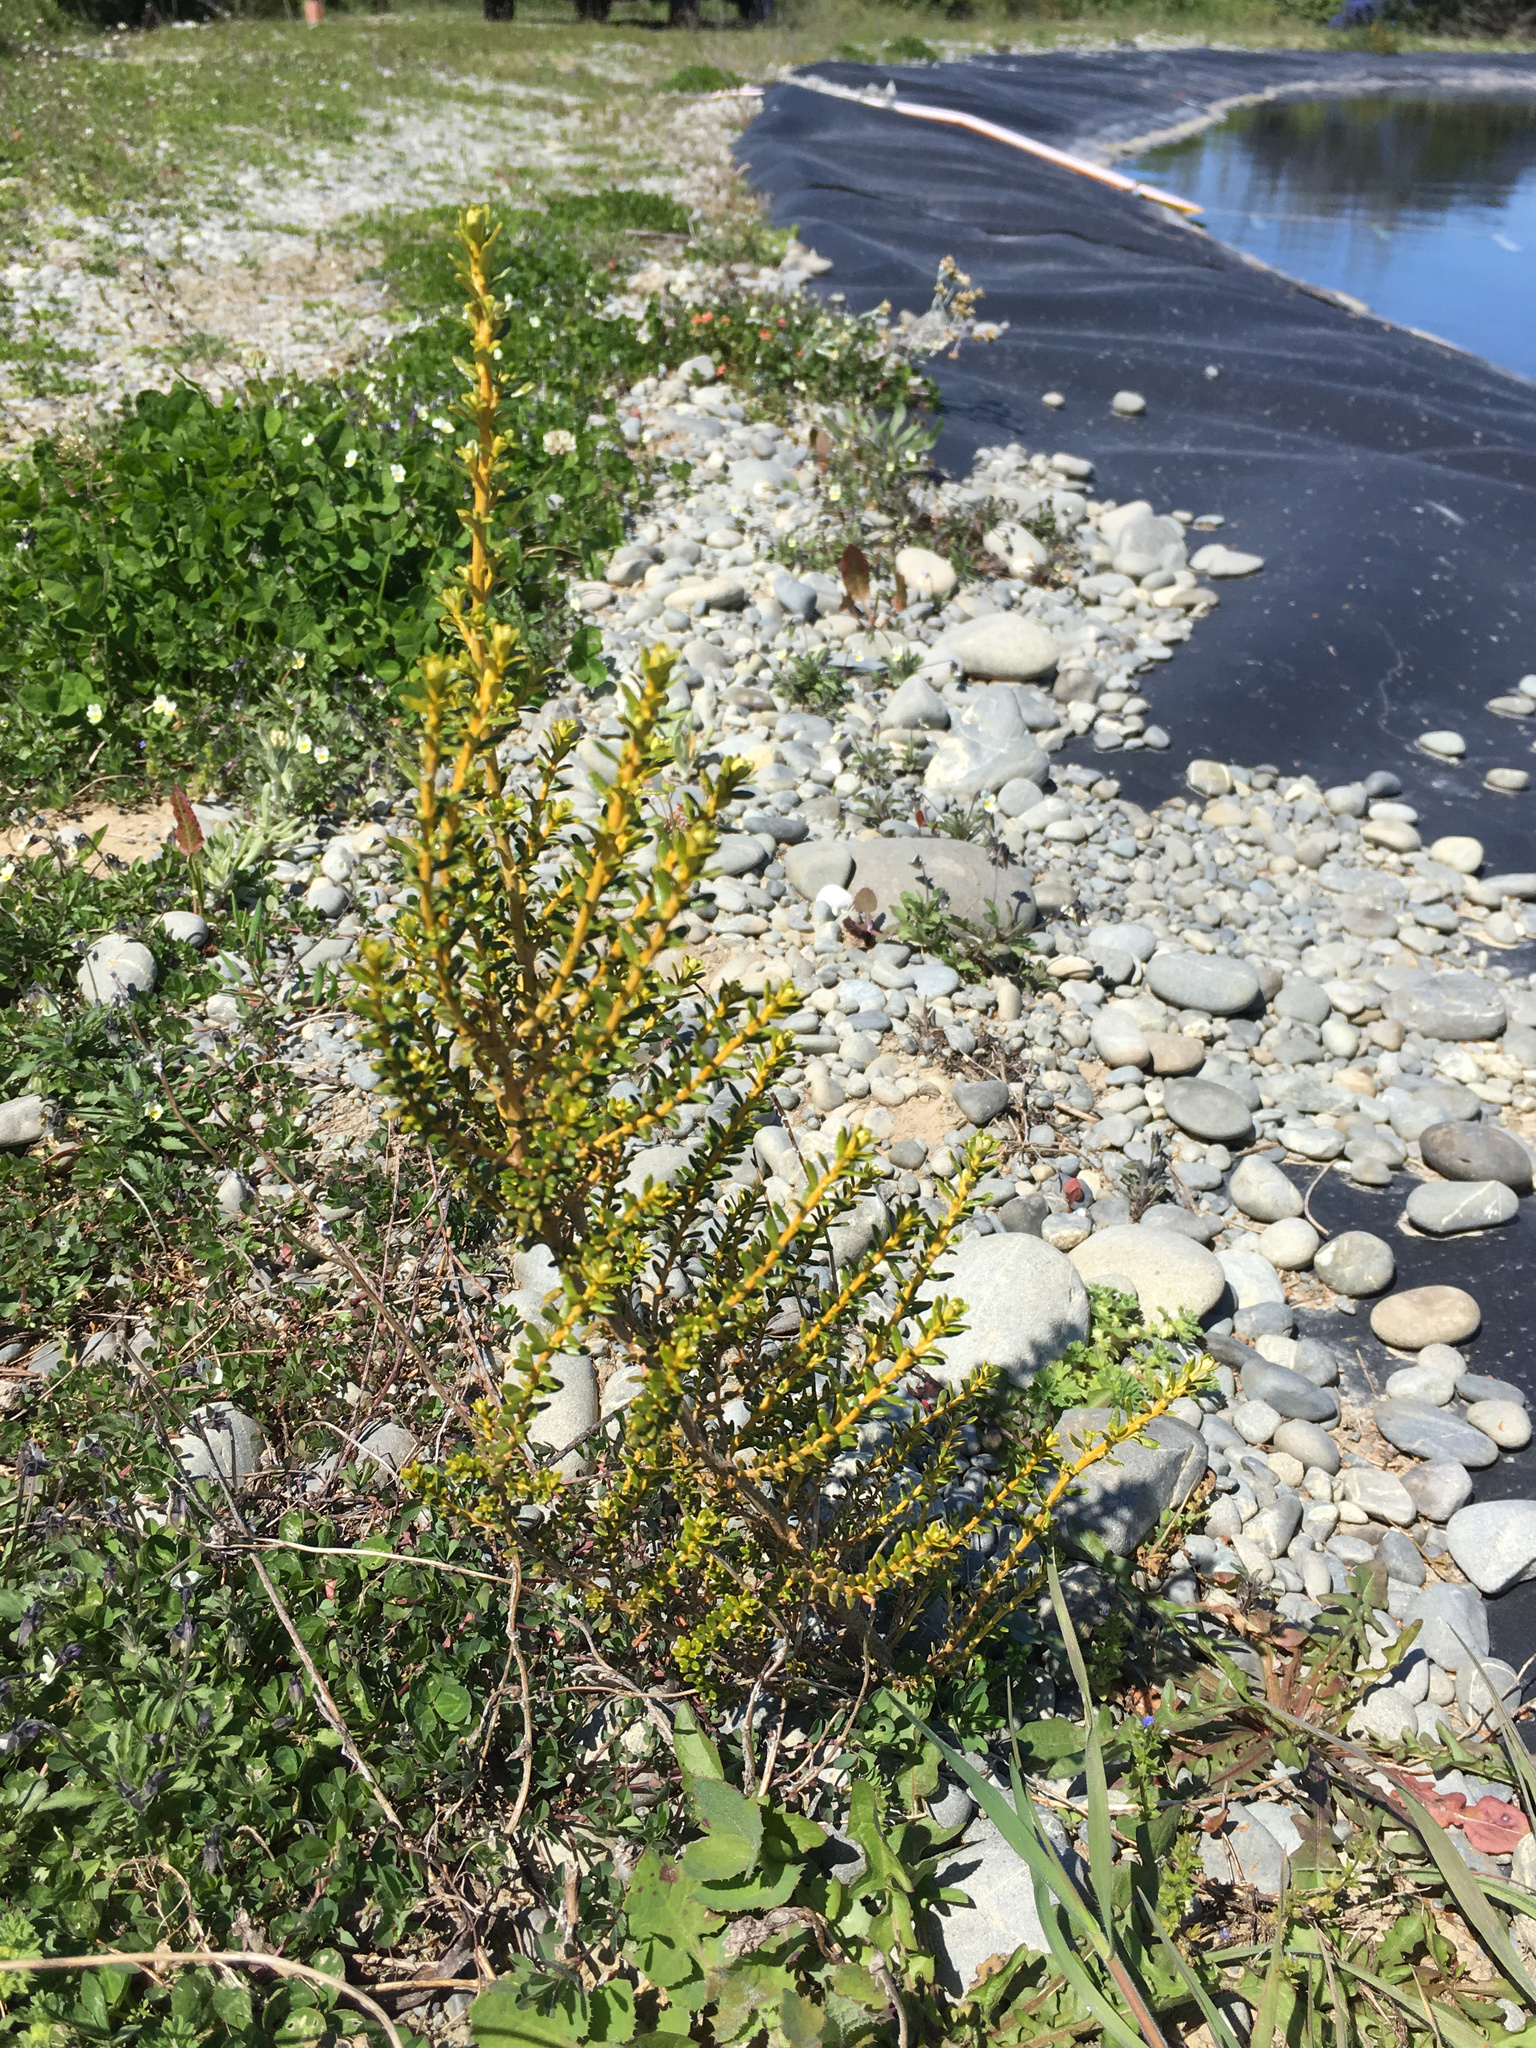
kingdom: Plantae
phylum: Tracheophyta
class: Magnoliopsida
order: Asterales
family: Asteraceae
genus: Ozothamnus
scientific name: Ozothamnus leptophyllus
